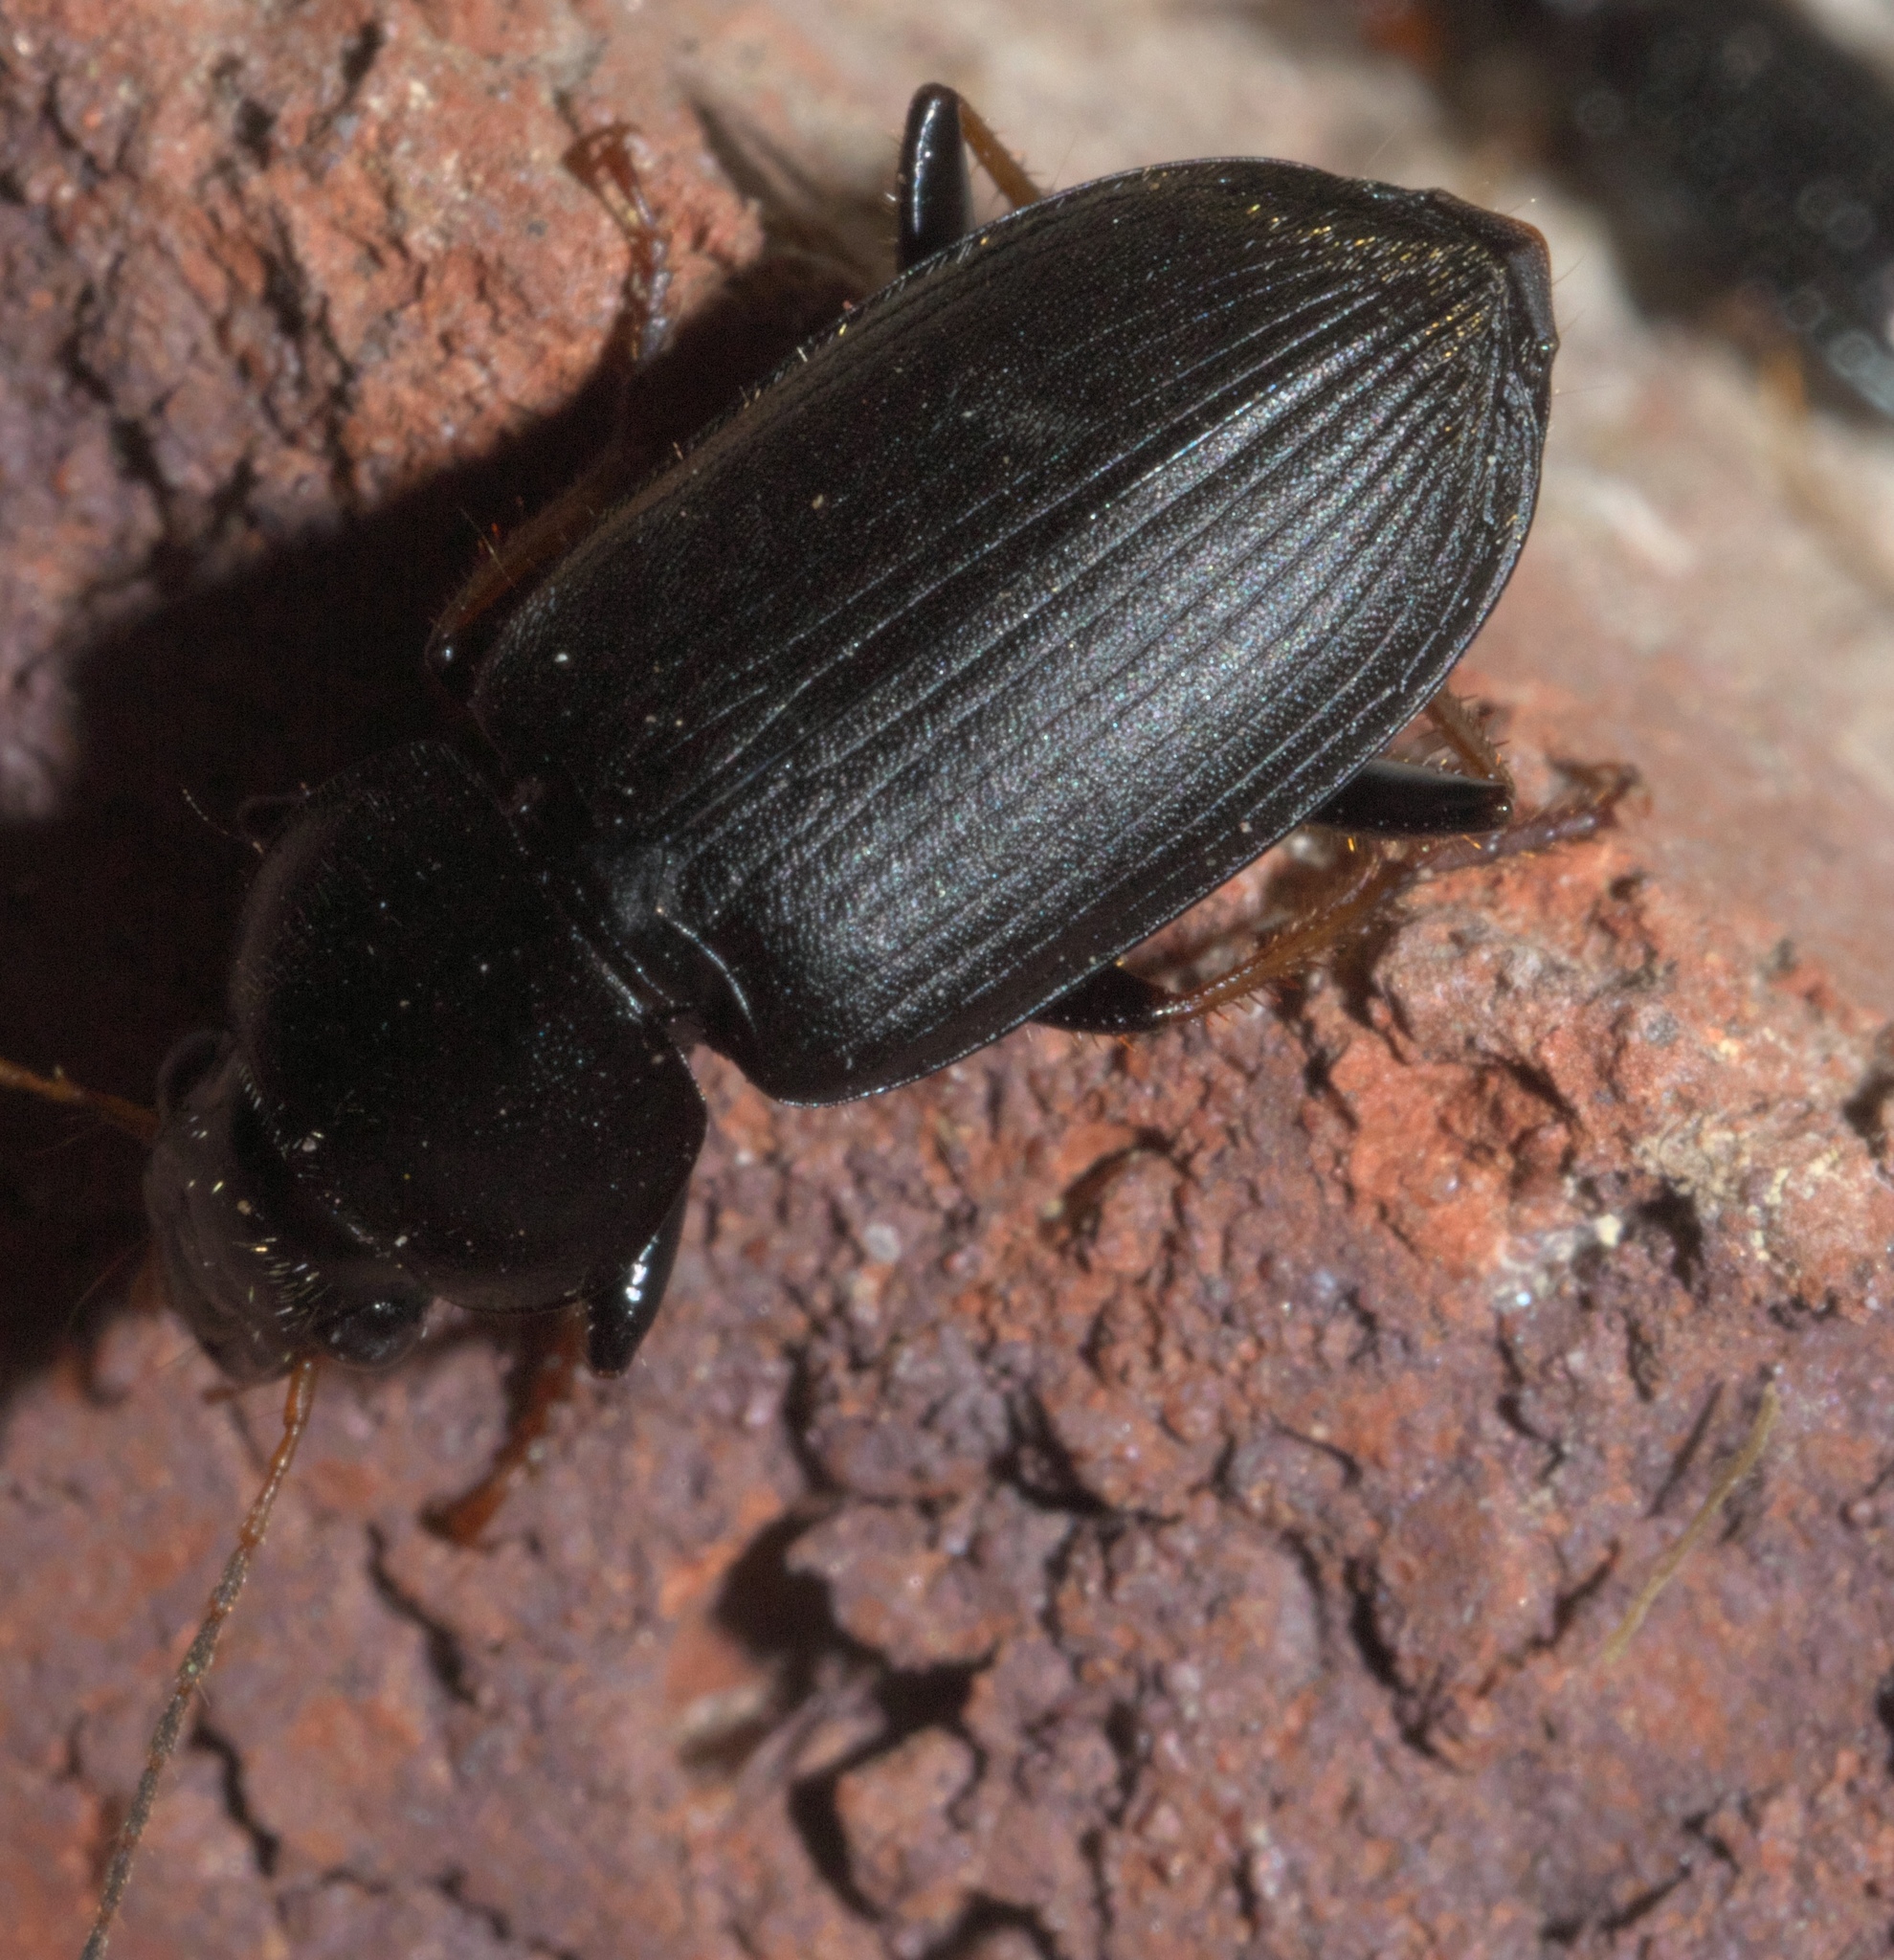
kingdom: Animalia
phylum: Arthropoda
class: Insecta
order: Coleoptera
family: Carabidae
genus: Amphasia
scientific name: Amphasia sericea
